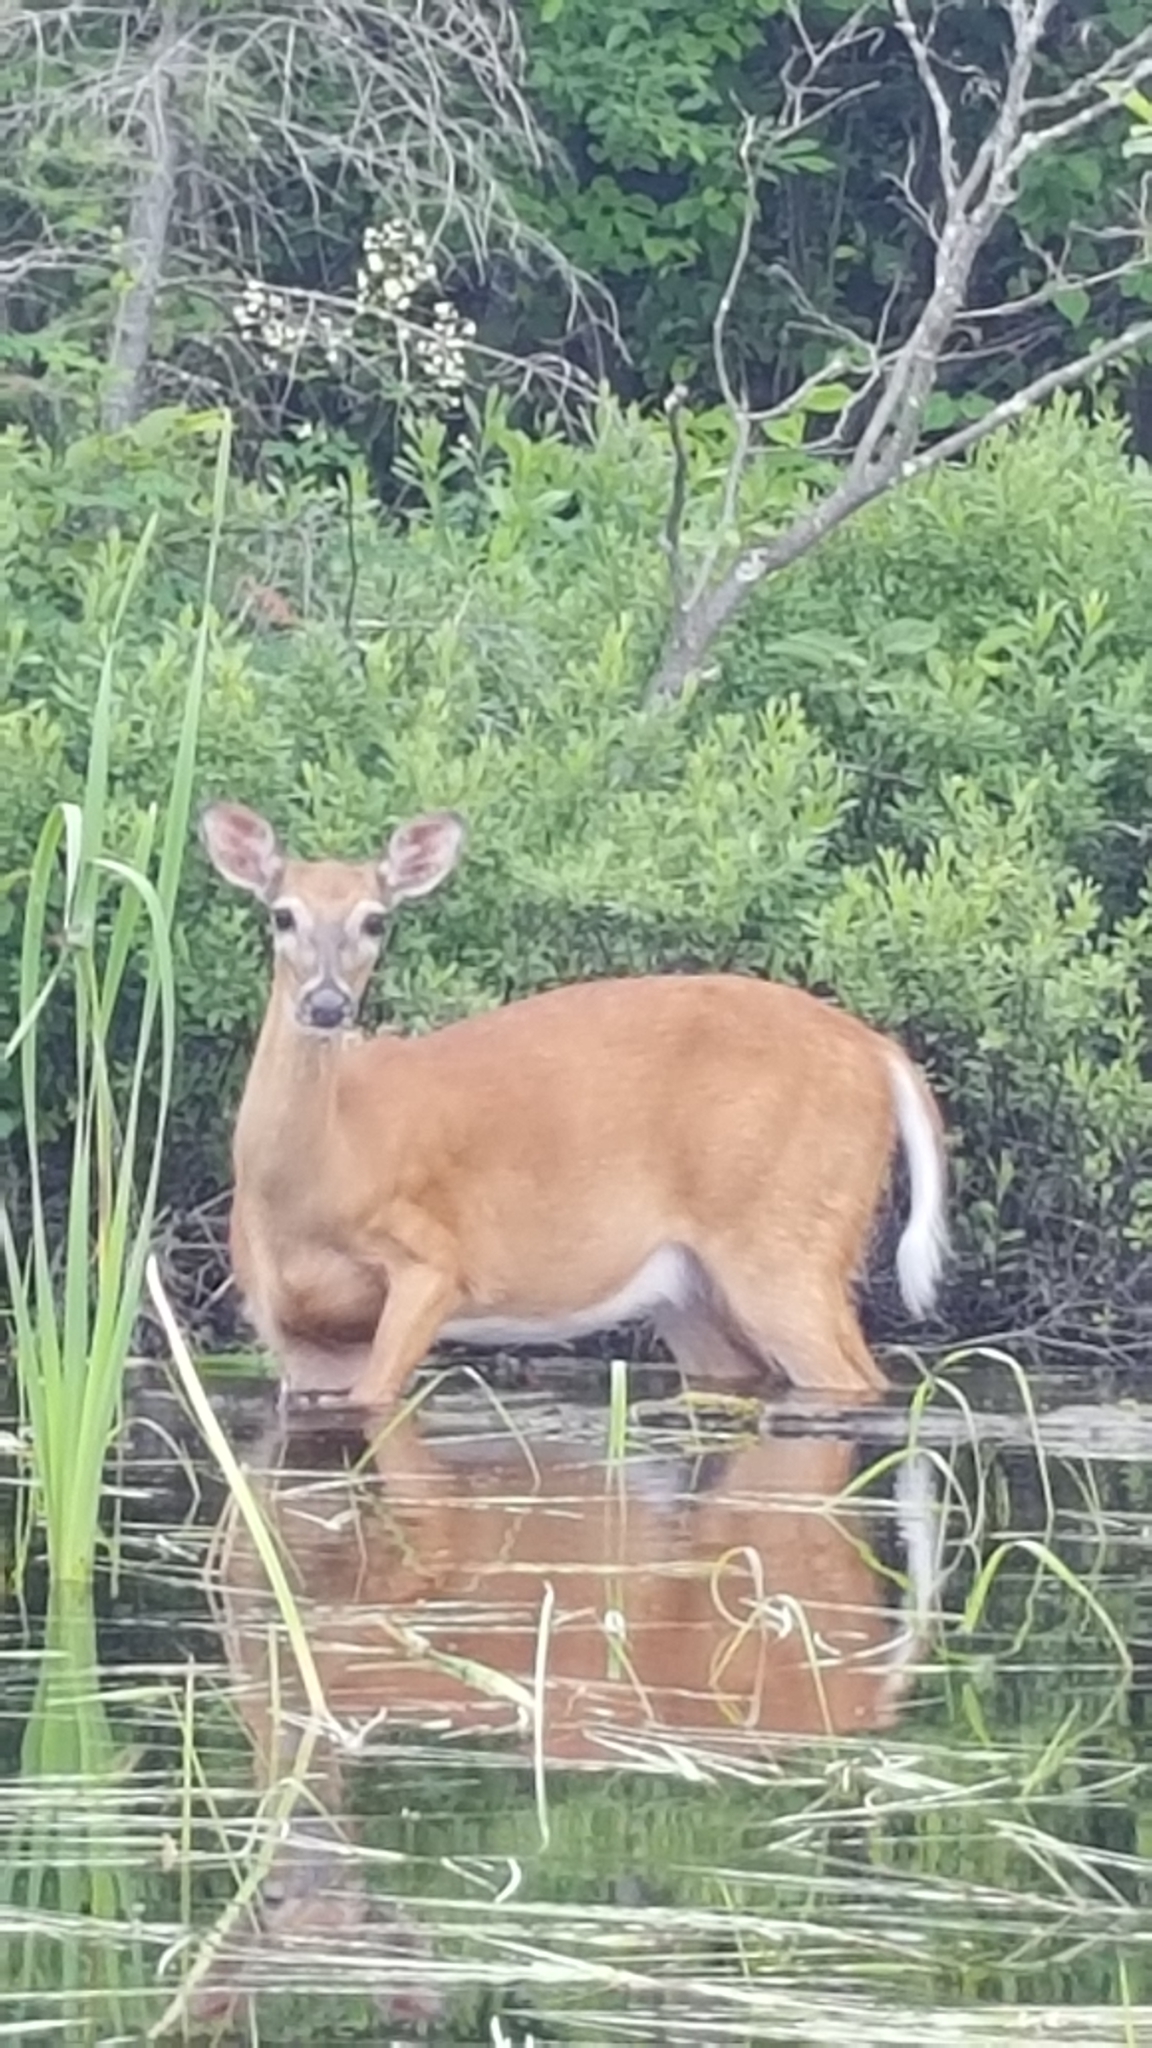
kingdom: Animalia
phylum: Chordata
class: Mammalia
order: Artiodactyla
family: Cervidae
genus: Odocoileus
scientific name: Odocoileus virginianus
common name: White-tailed deer
